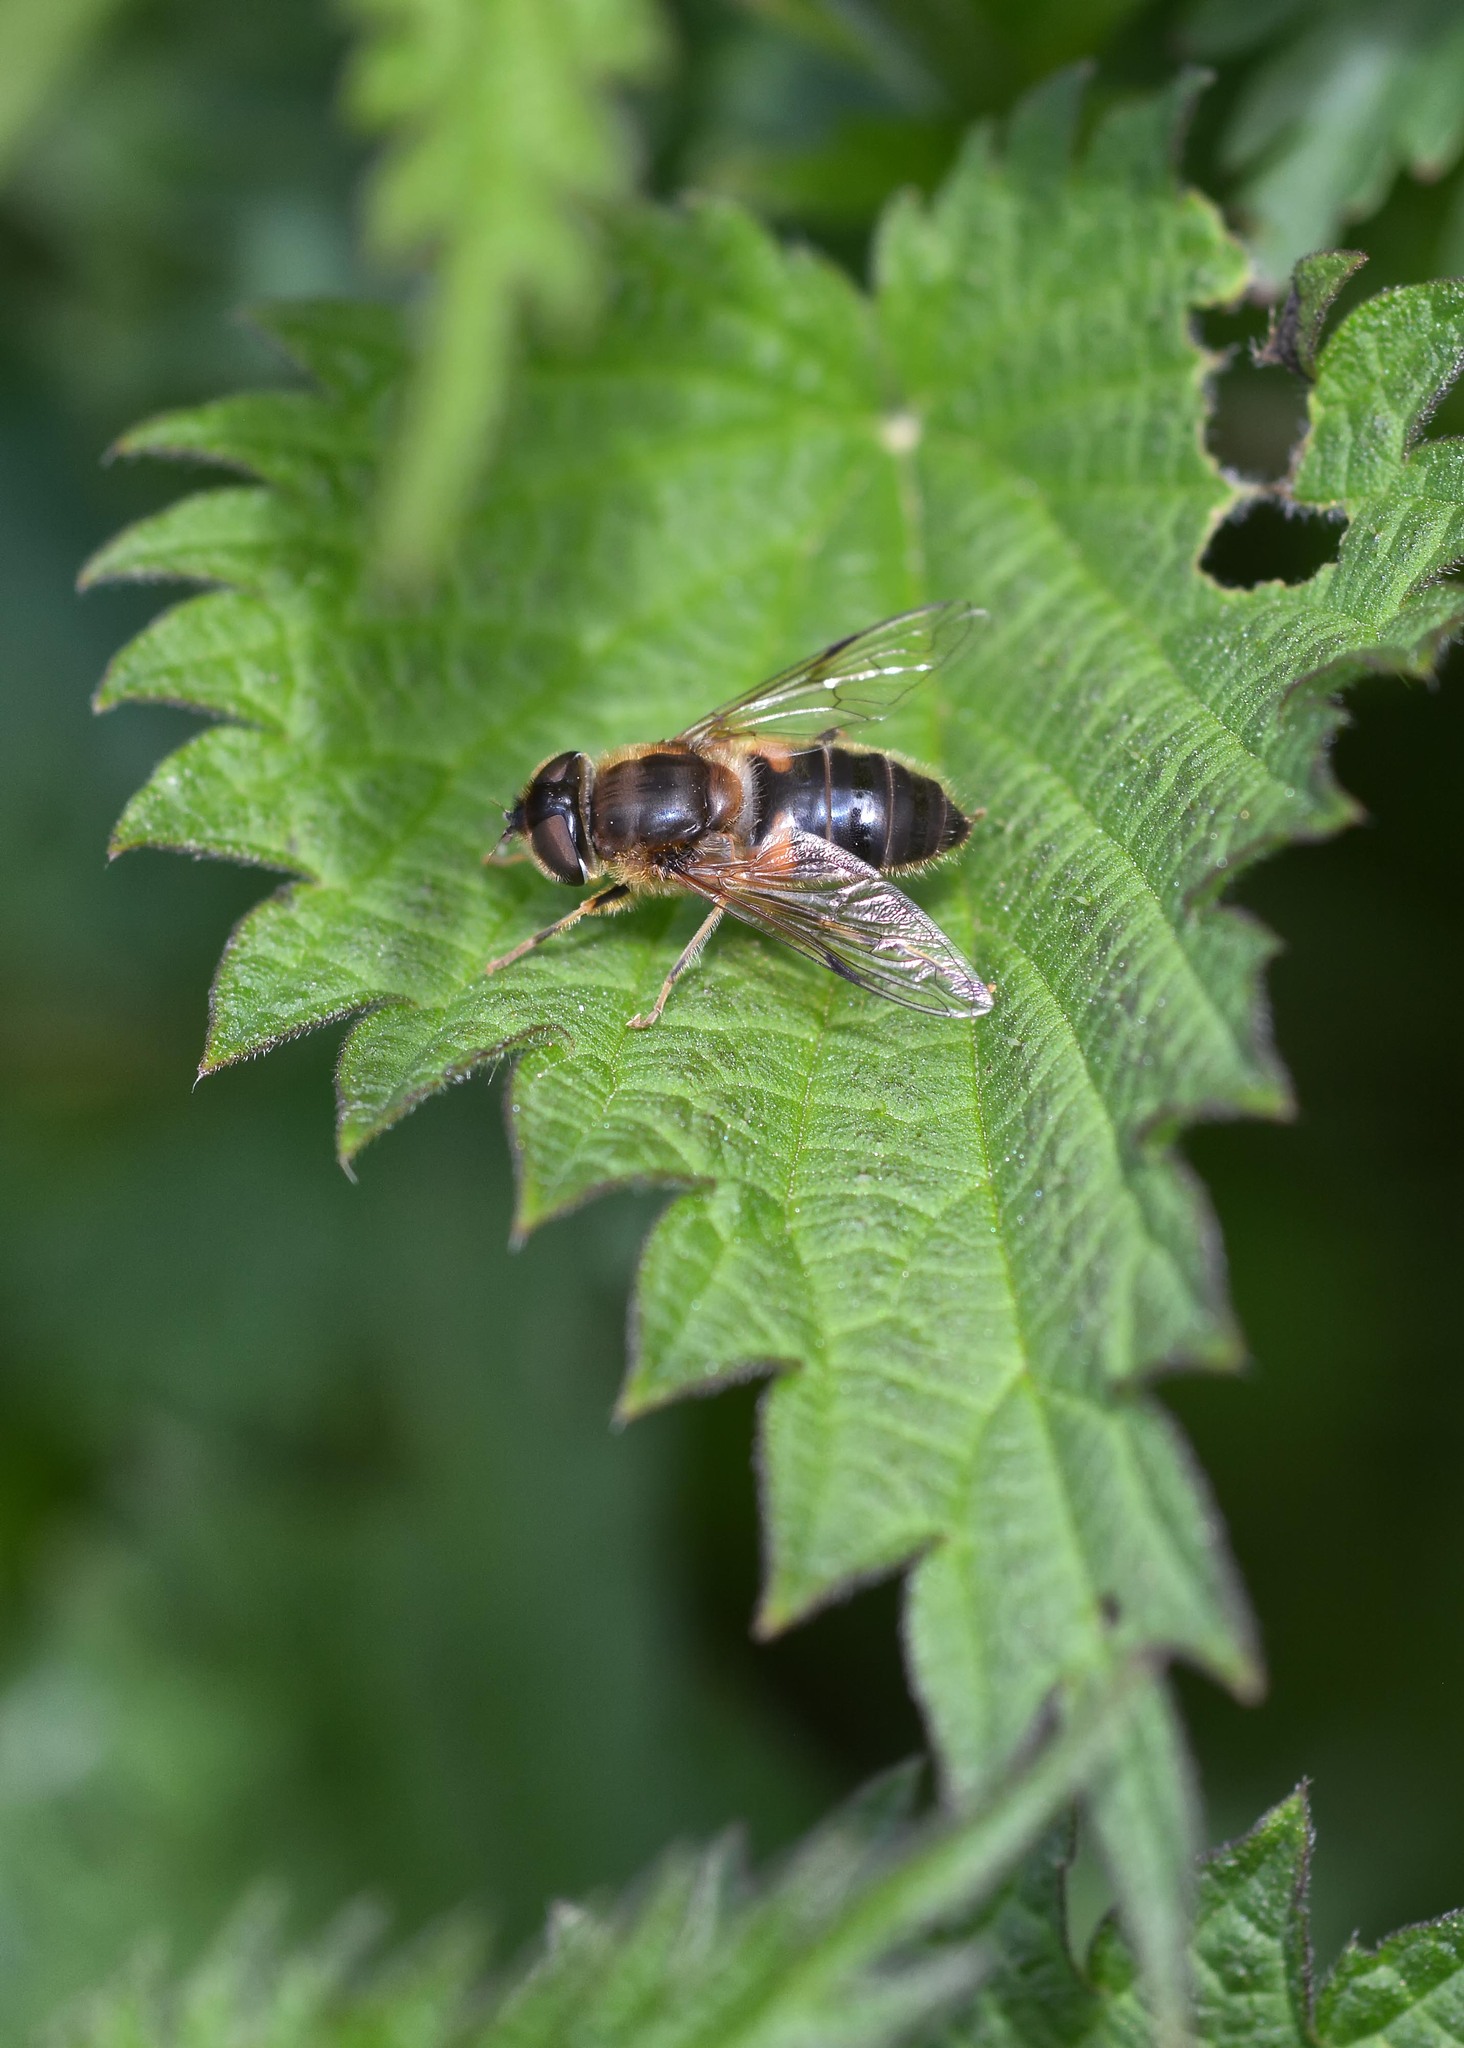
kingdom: Animalia
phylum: Arthropoda
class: Insecta
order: Diptera
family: Syrphidae
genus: Eristalis
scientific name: Eristalis pertinax
